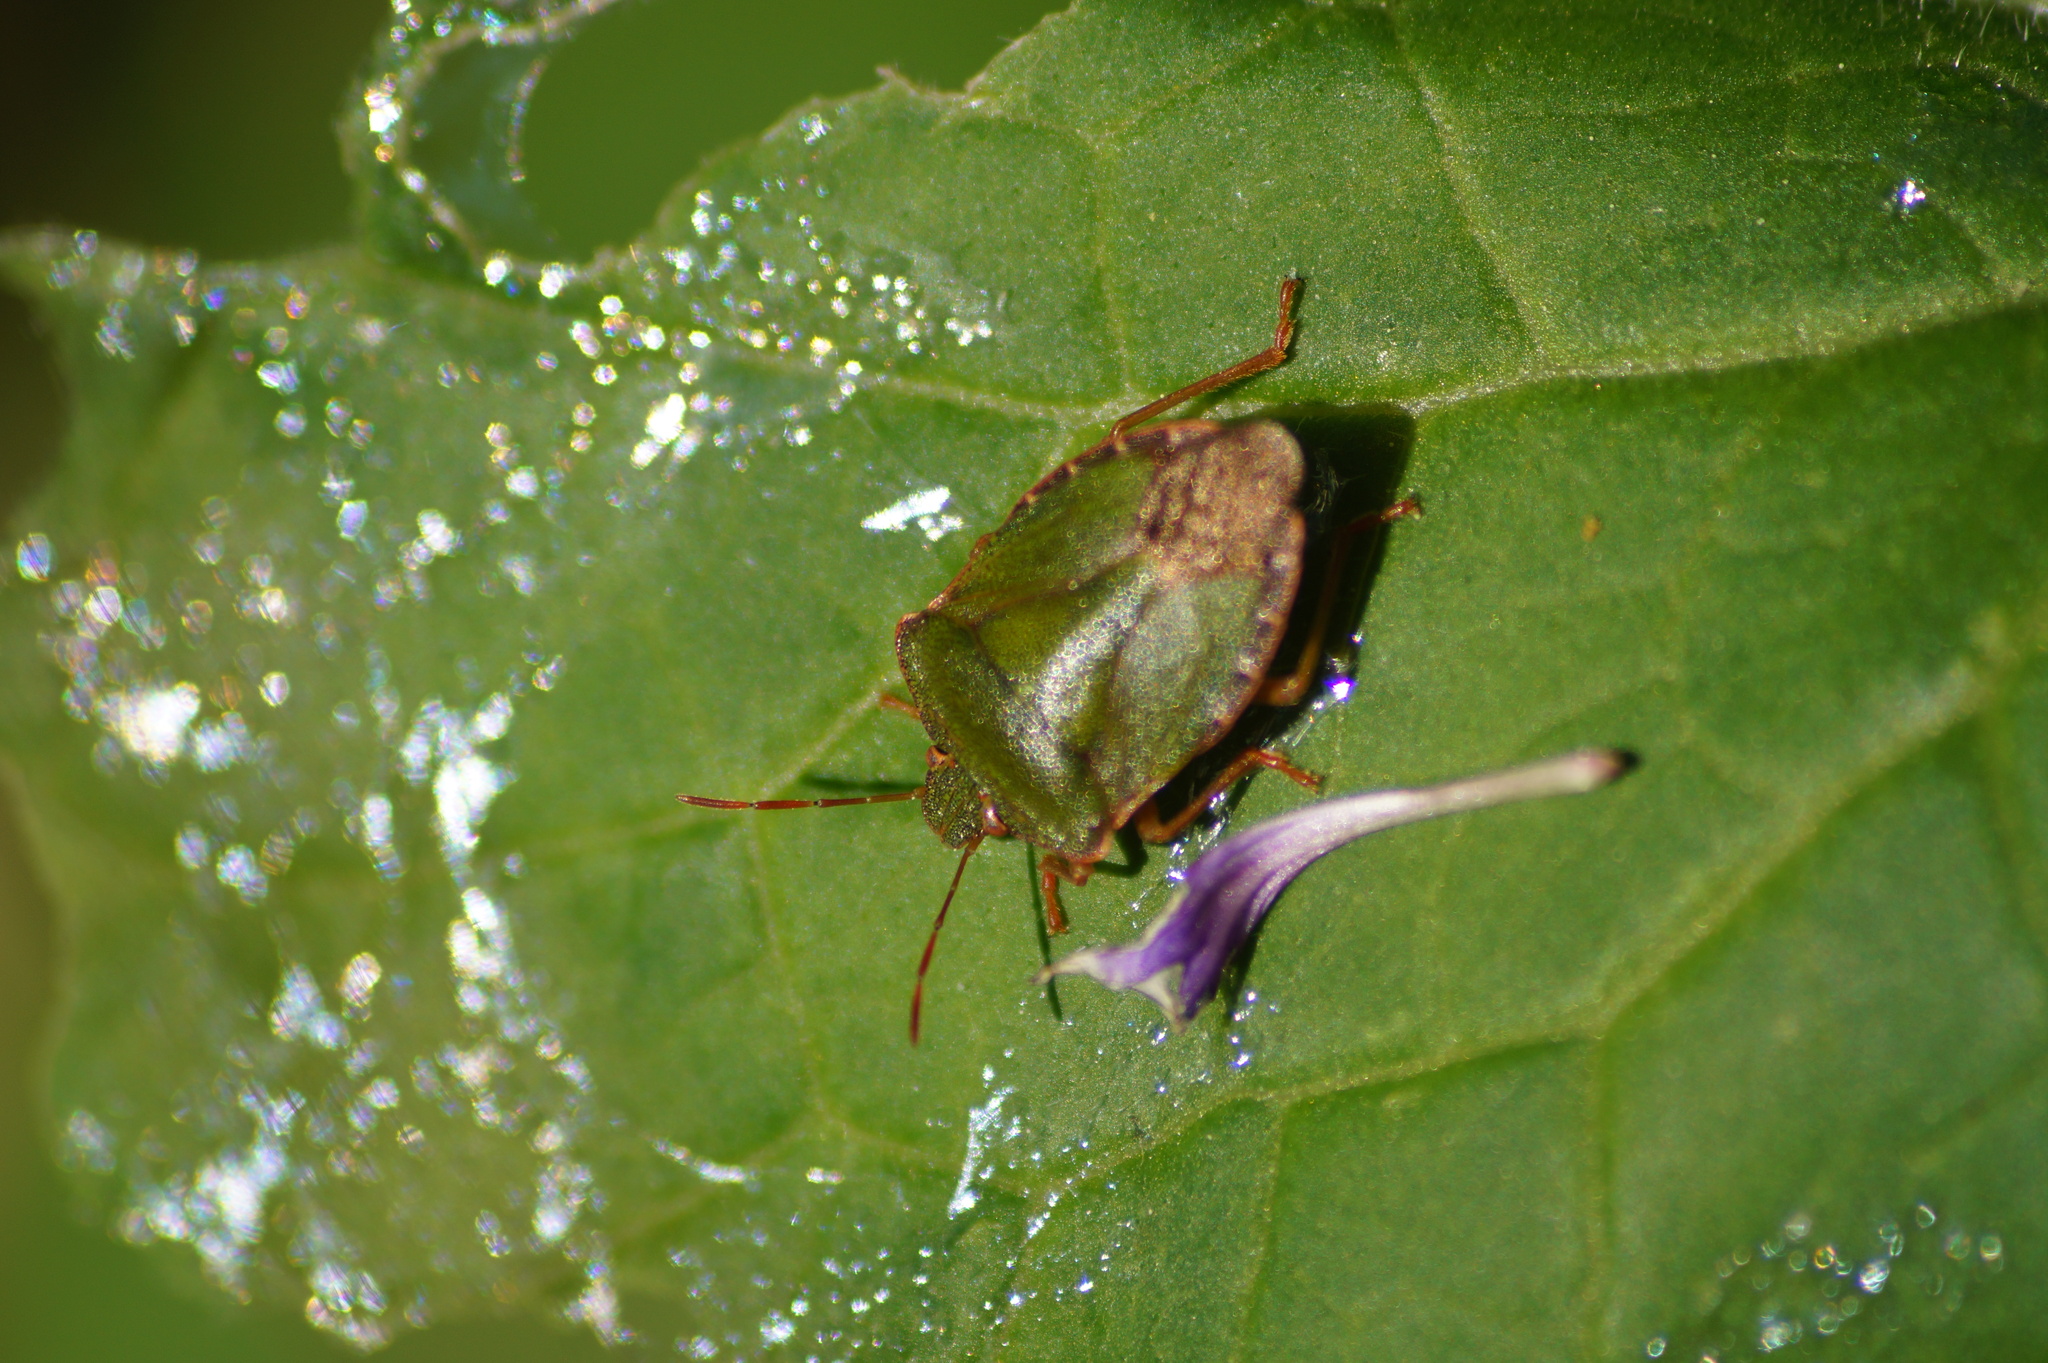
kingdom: Animalia
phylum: Arthropoda
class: Insecta
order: Hemiptera
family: Pentatomidae
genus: Palomena
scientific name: Palomena prasina
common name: Green shieldbug
